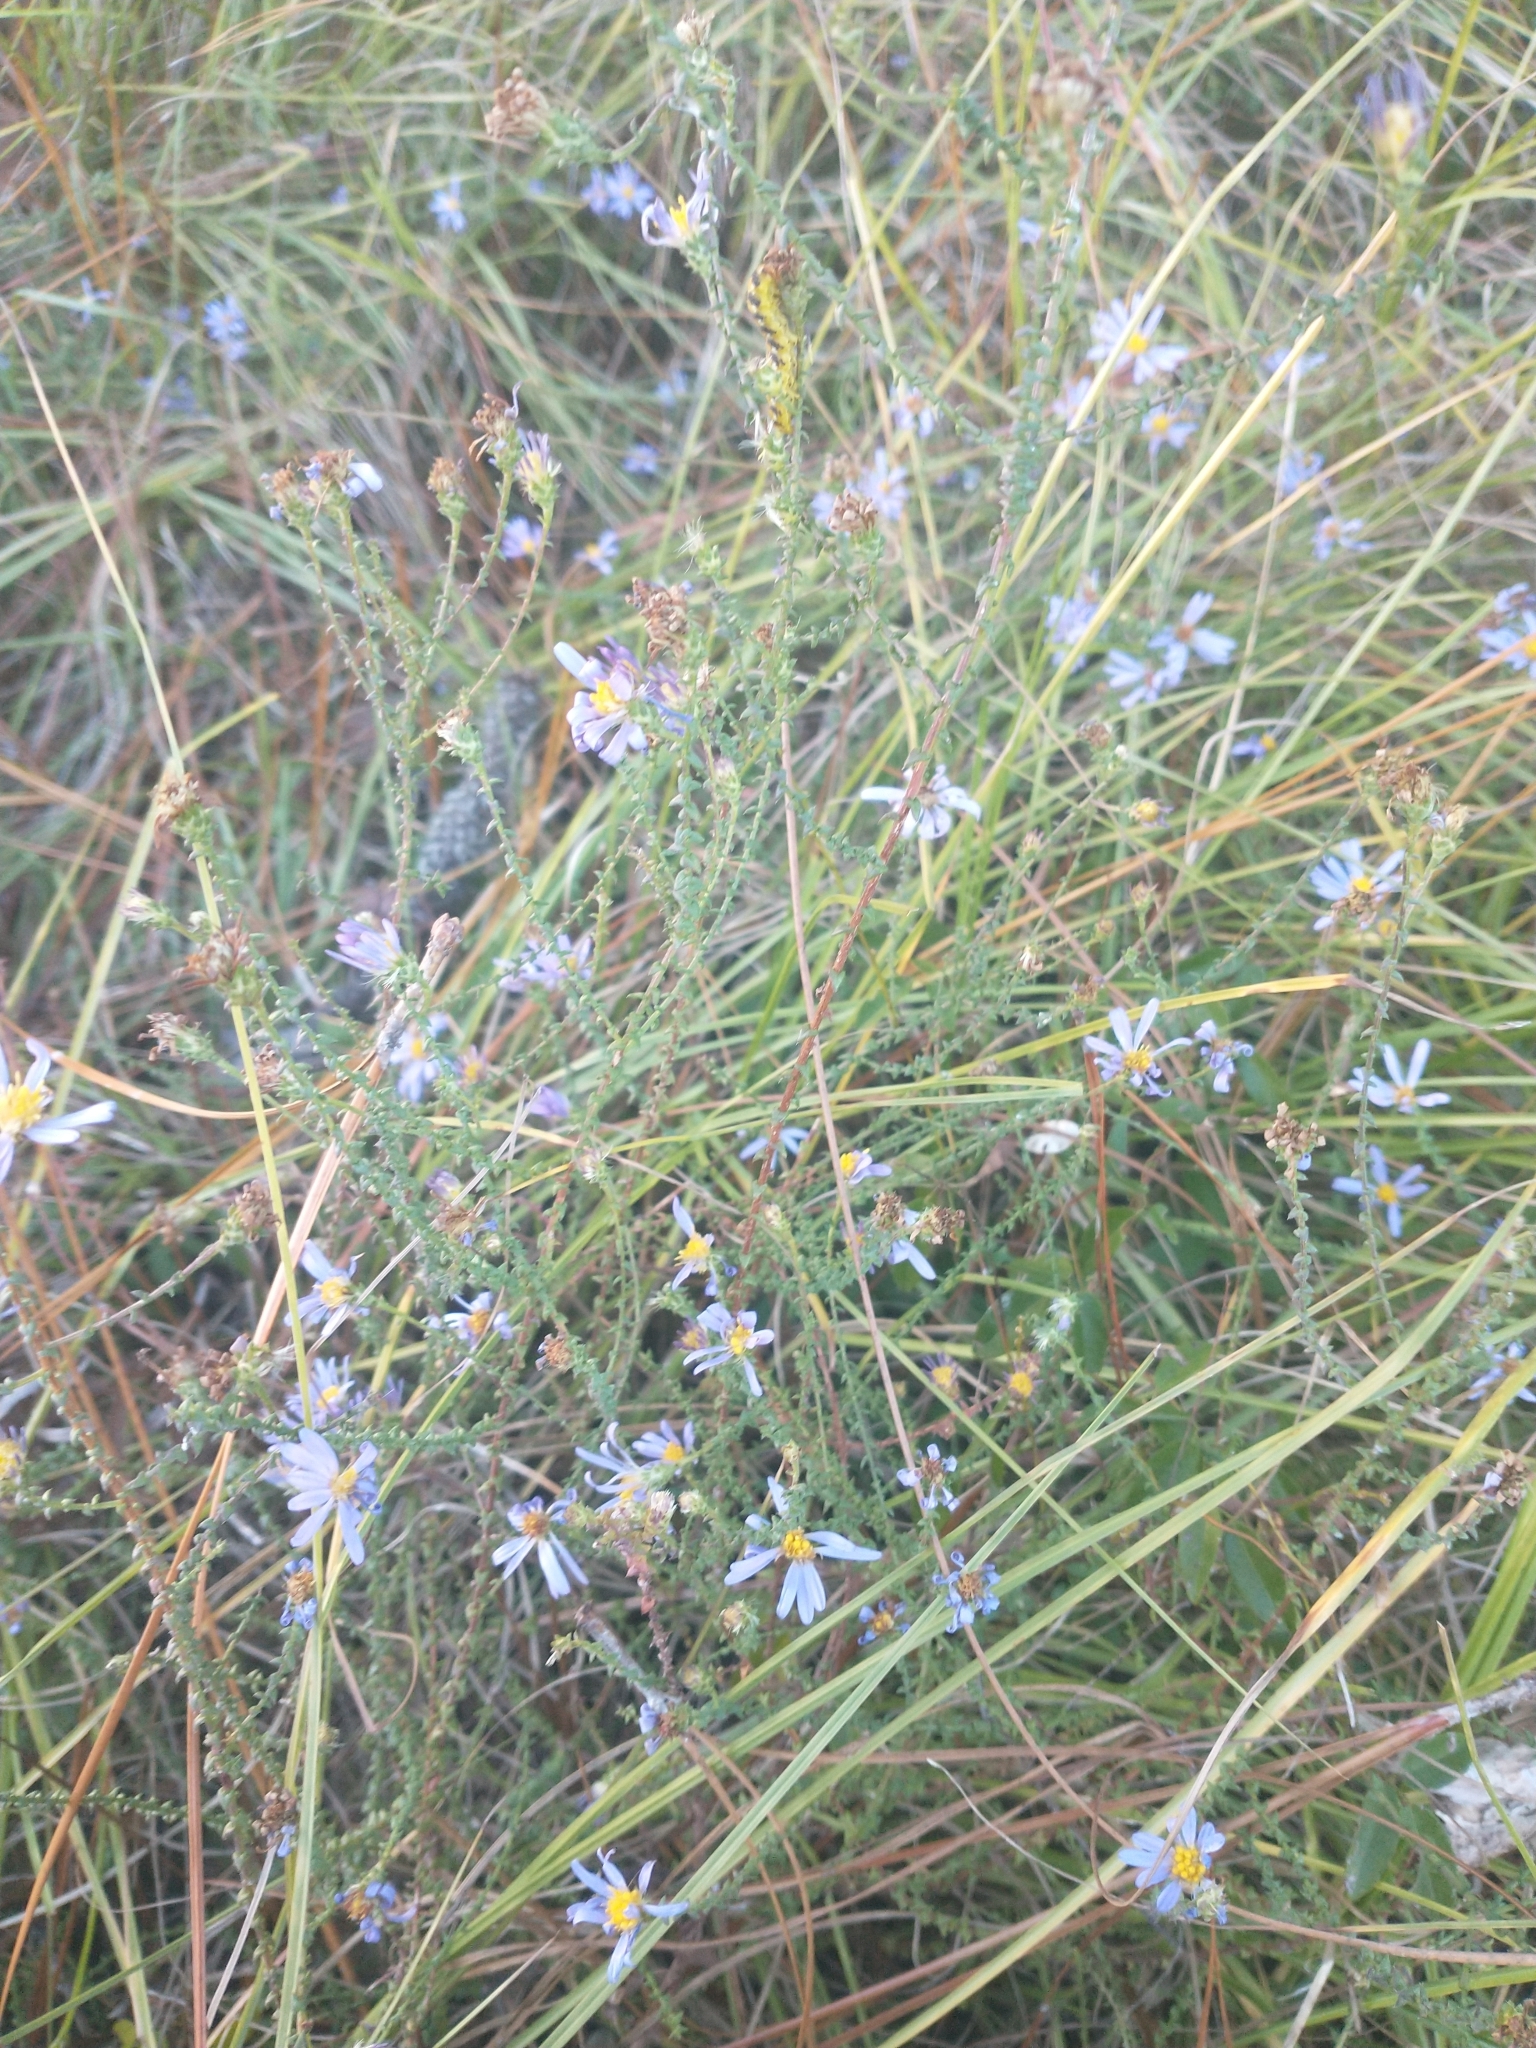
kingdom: Plantae
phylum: Tracheophyta
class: Magnoliopsida
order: Asterales
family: Asteraceae
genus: Symphyotrichum
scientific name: Symphyotrichum walteri
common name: Walter's aster
